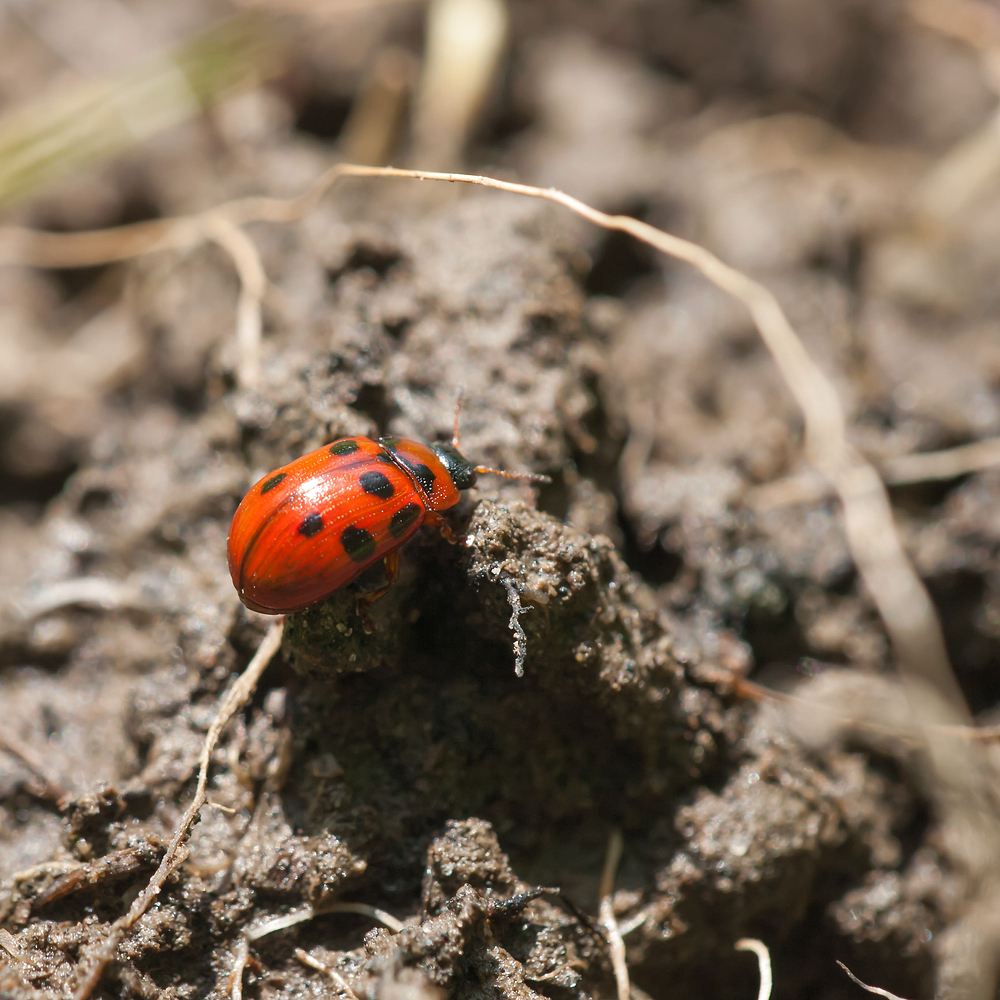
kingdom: Animalia
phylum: Arthropoda
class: Insecta
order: Coleoptera
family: Chrysomelidae
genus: Gonioctena
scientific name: Gonioctena decemnotata
